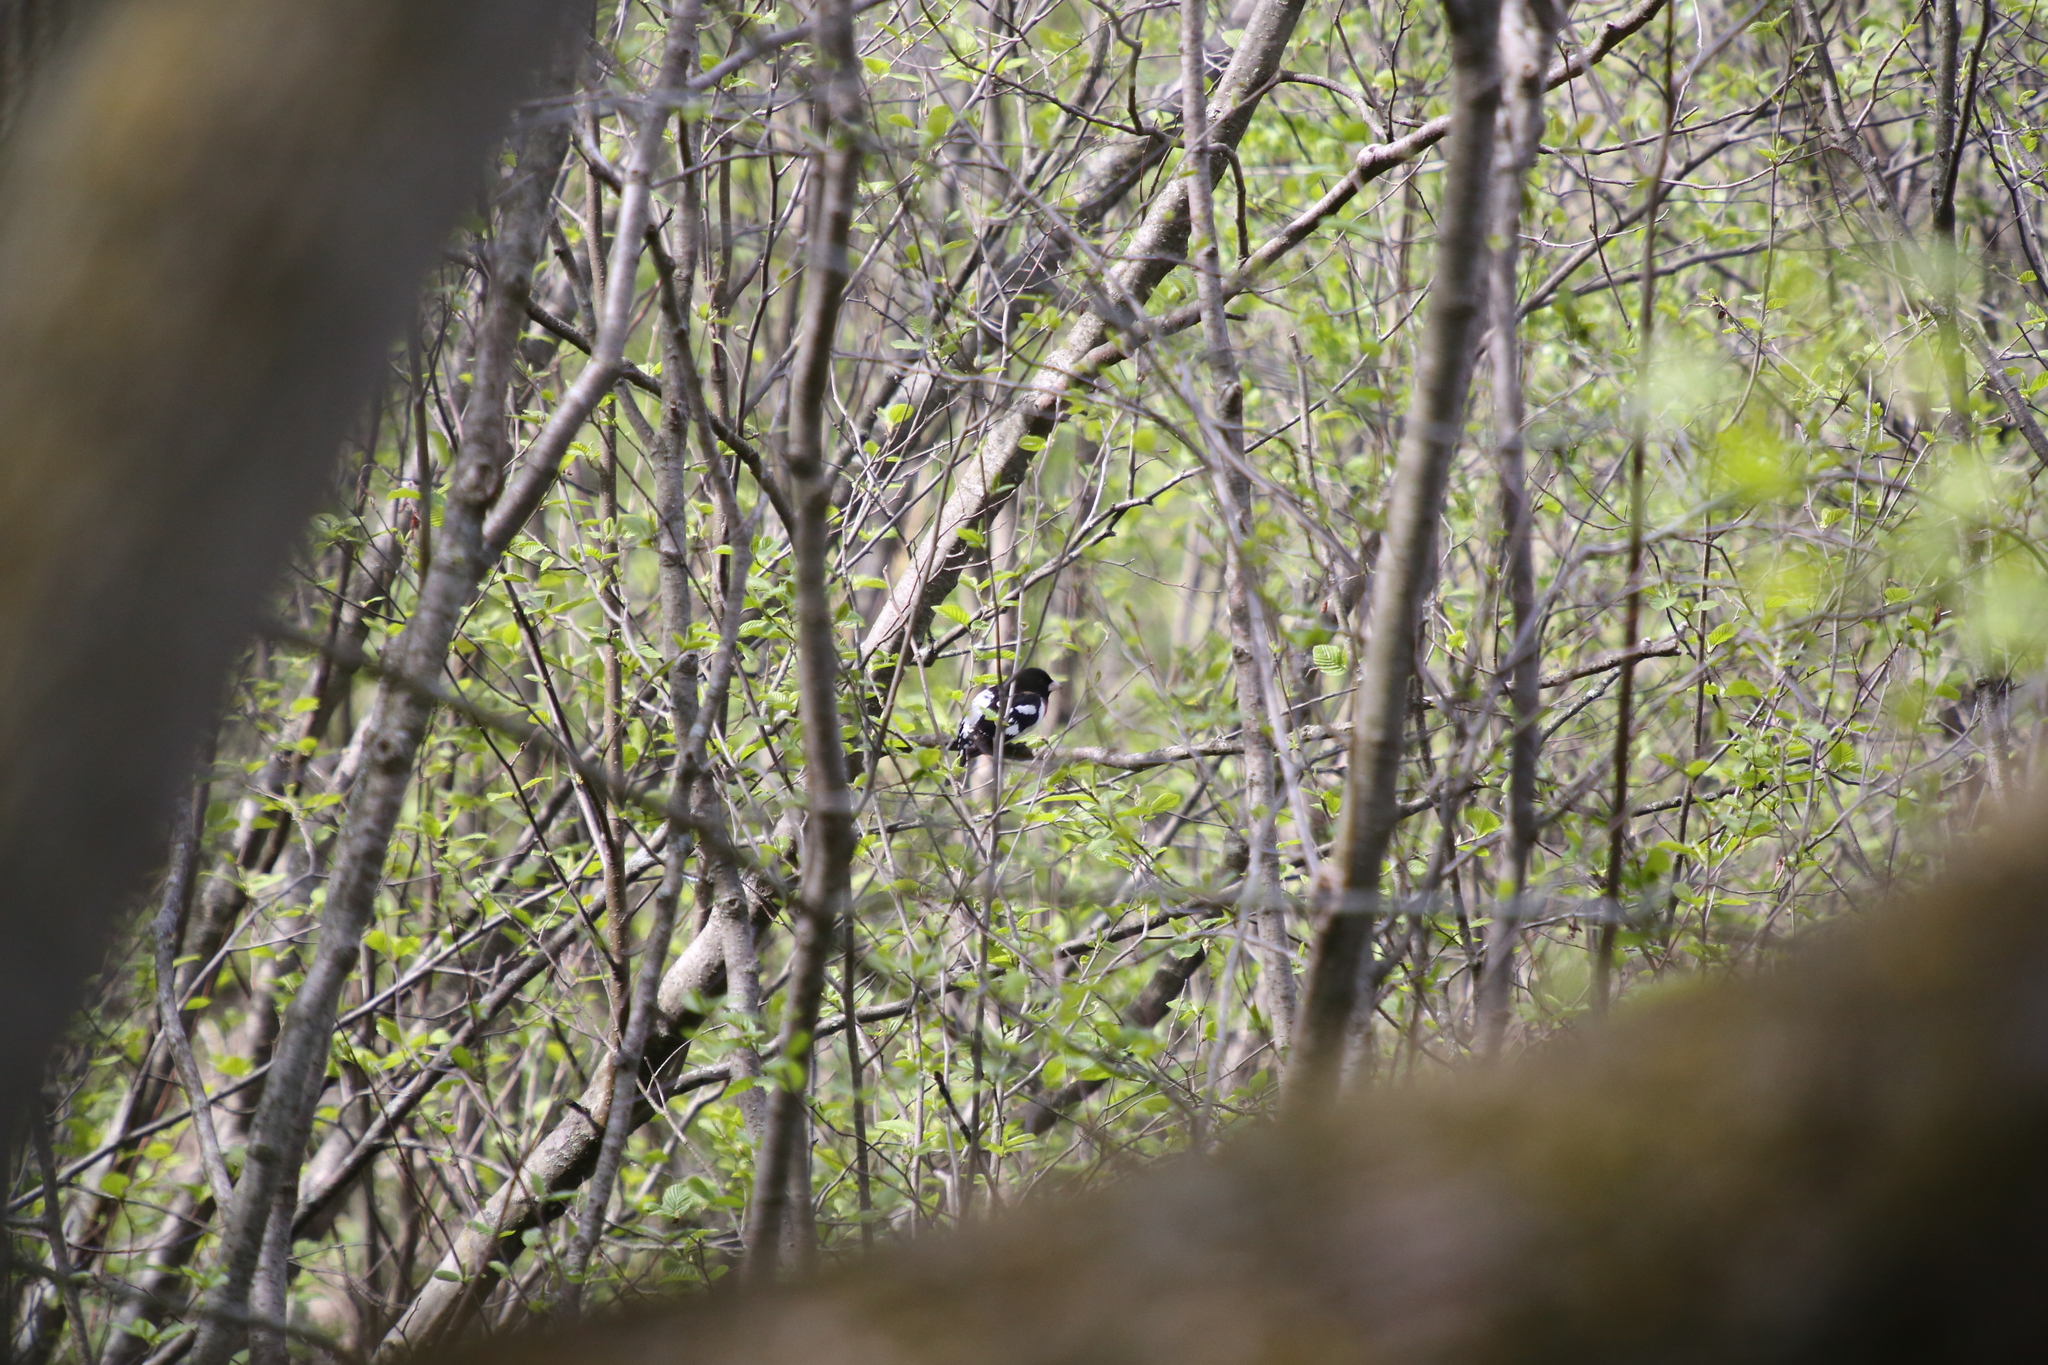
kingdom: Animalia
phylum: Chordata
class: Aves
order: Passeriformes
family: Cardinalidae
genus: Pheucticus
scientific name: Pheucticus ludovicianus
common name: Rose-breasted grosbeak
